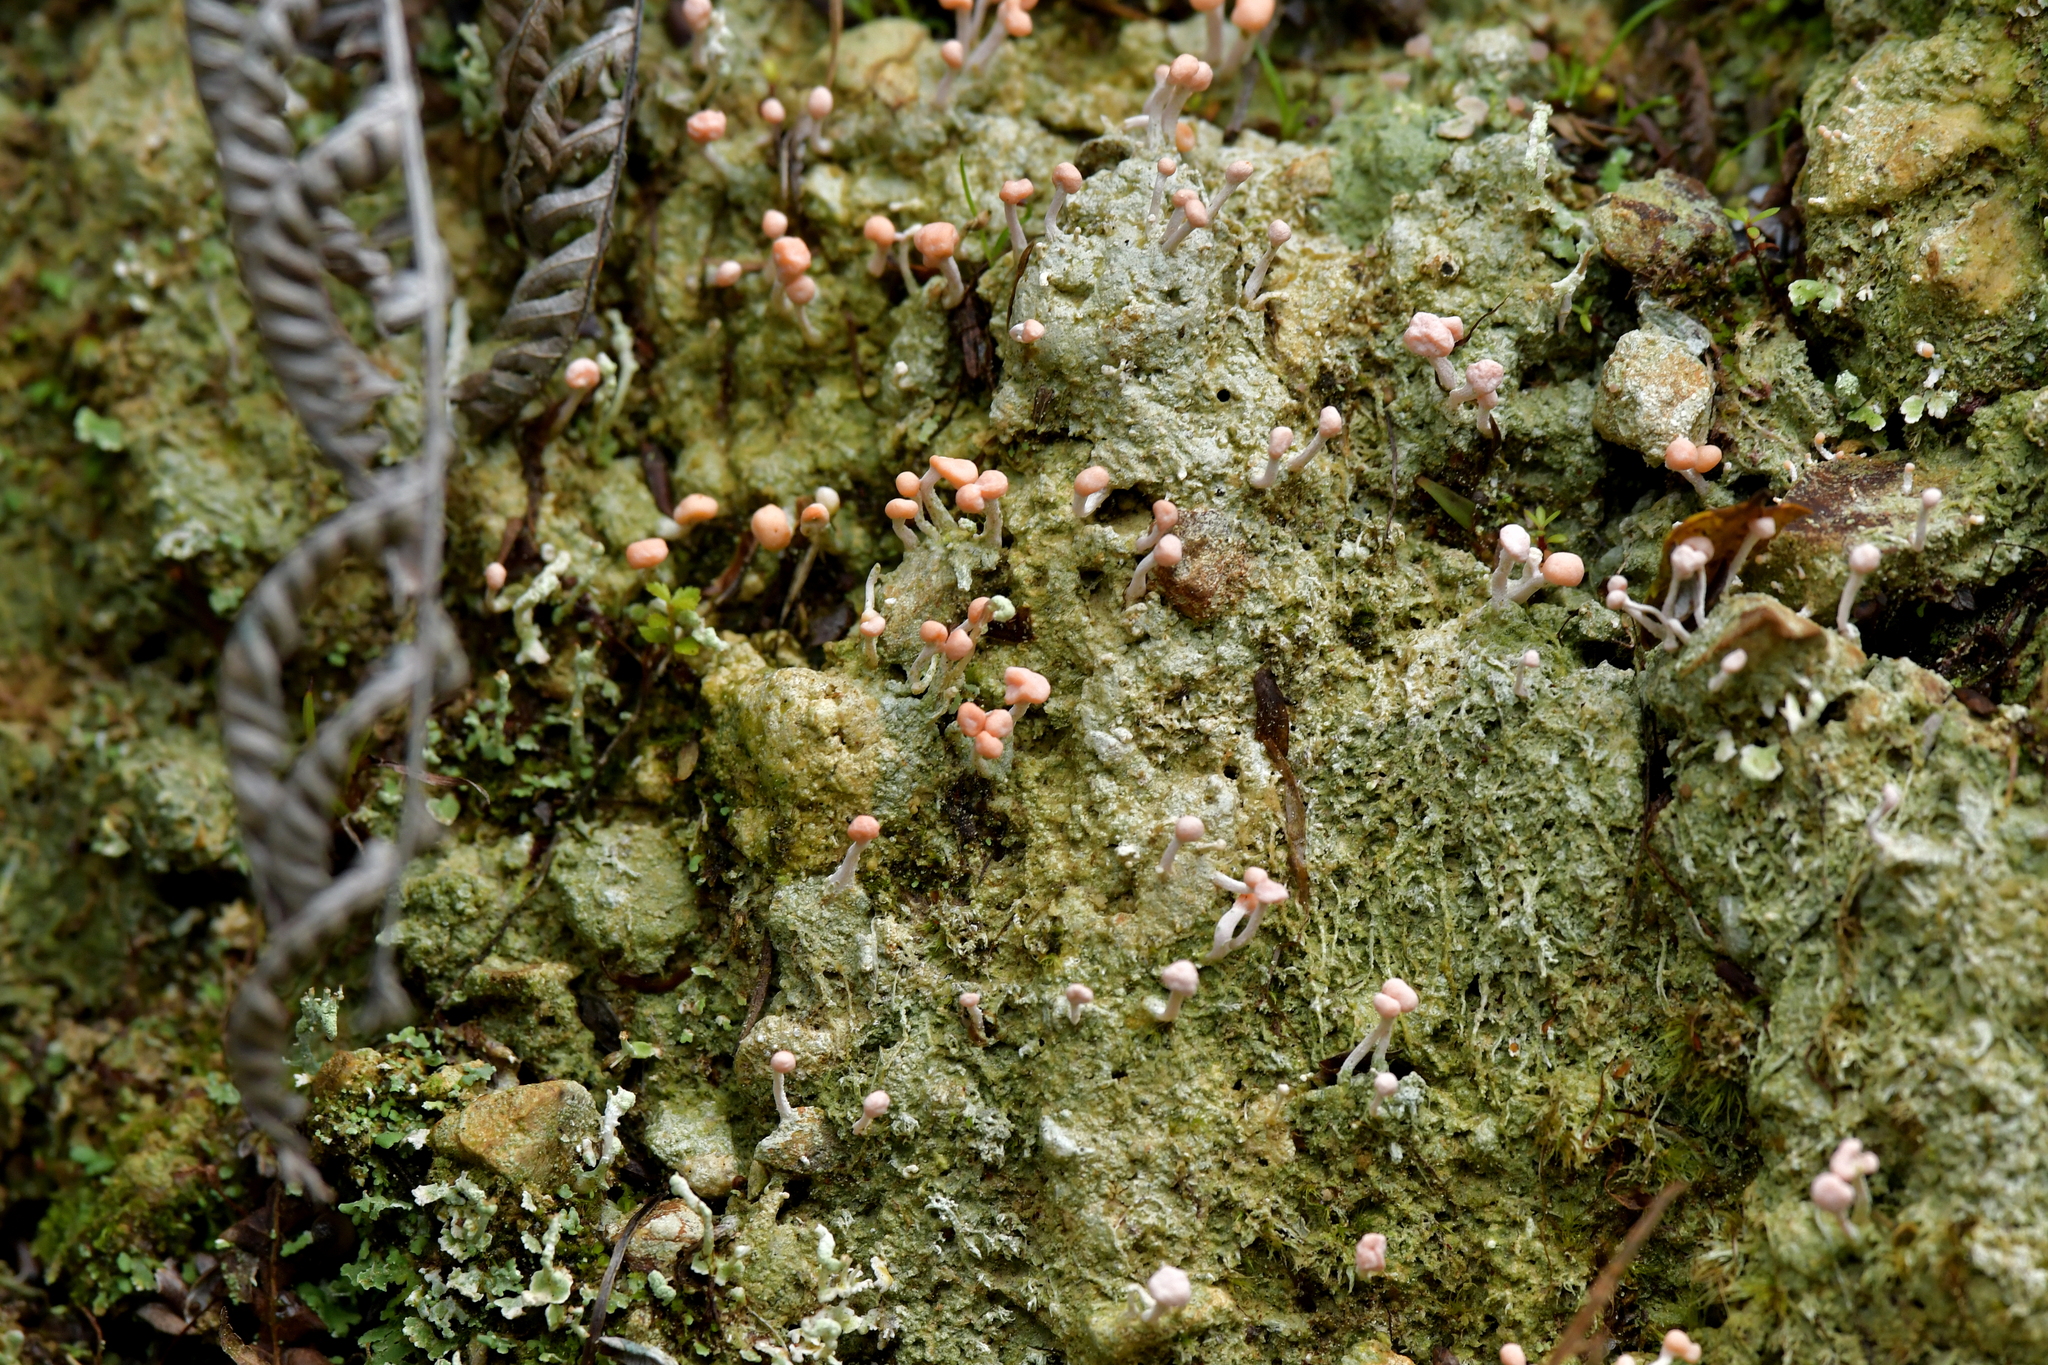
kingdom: Fungi
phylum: Ascomycota
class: Lecanoromycetes
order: Pertusariales
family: Icmadophilaceae
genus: Dibaeis
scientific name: Dibaeis arcuata
